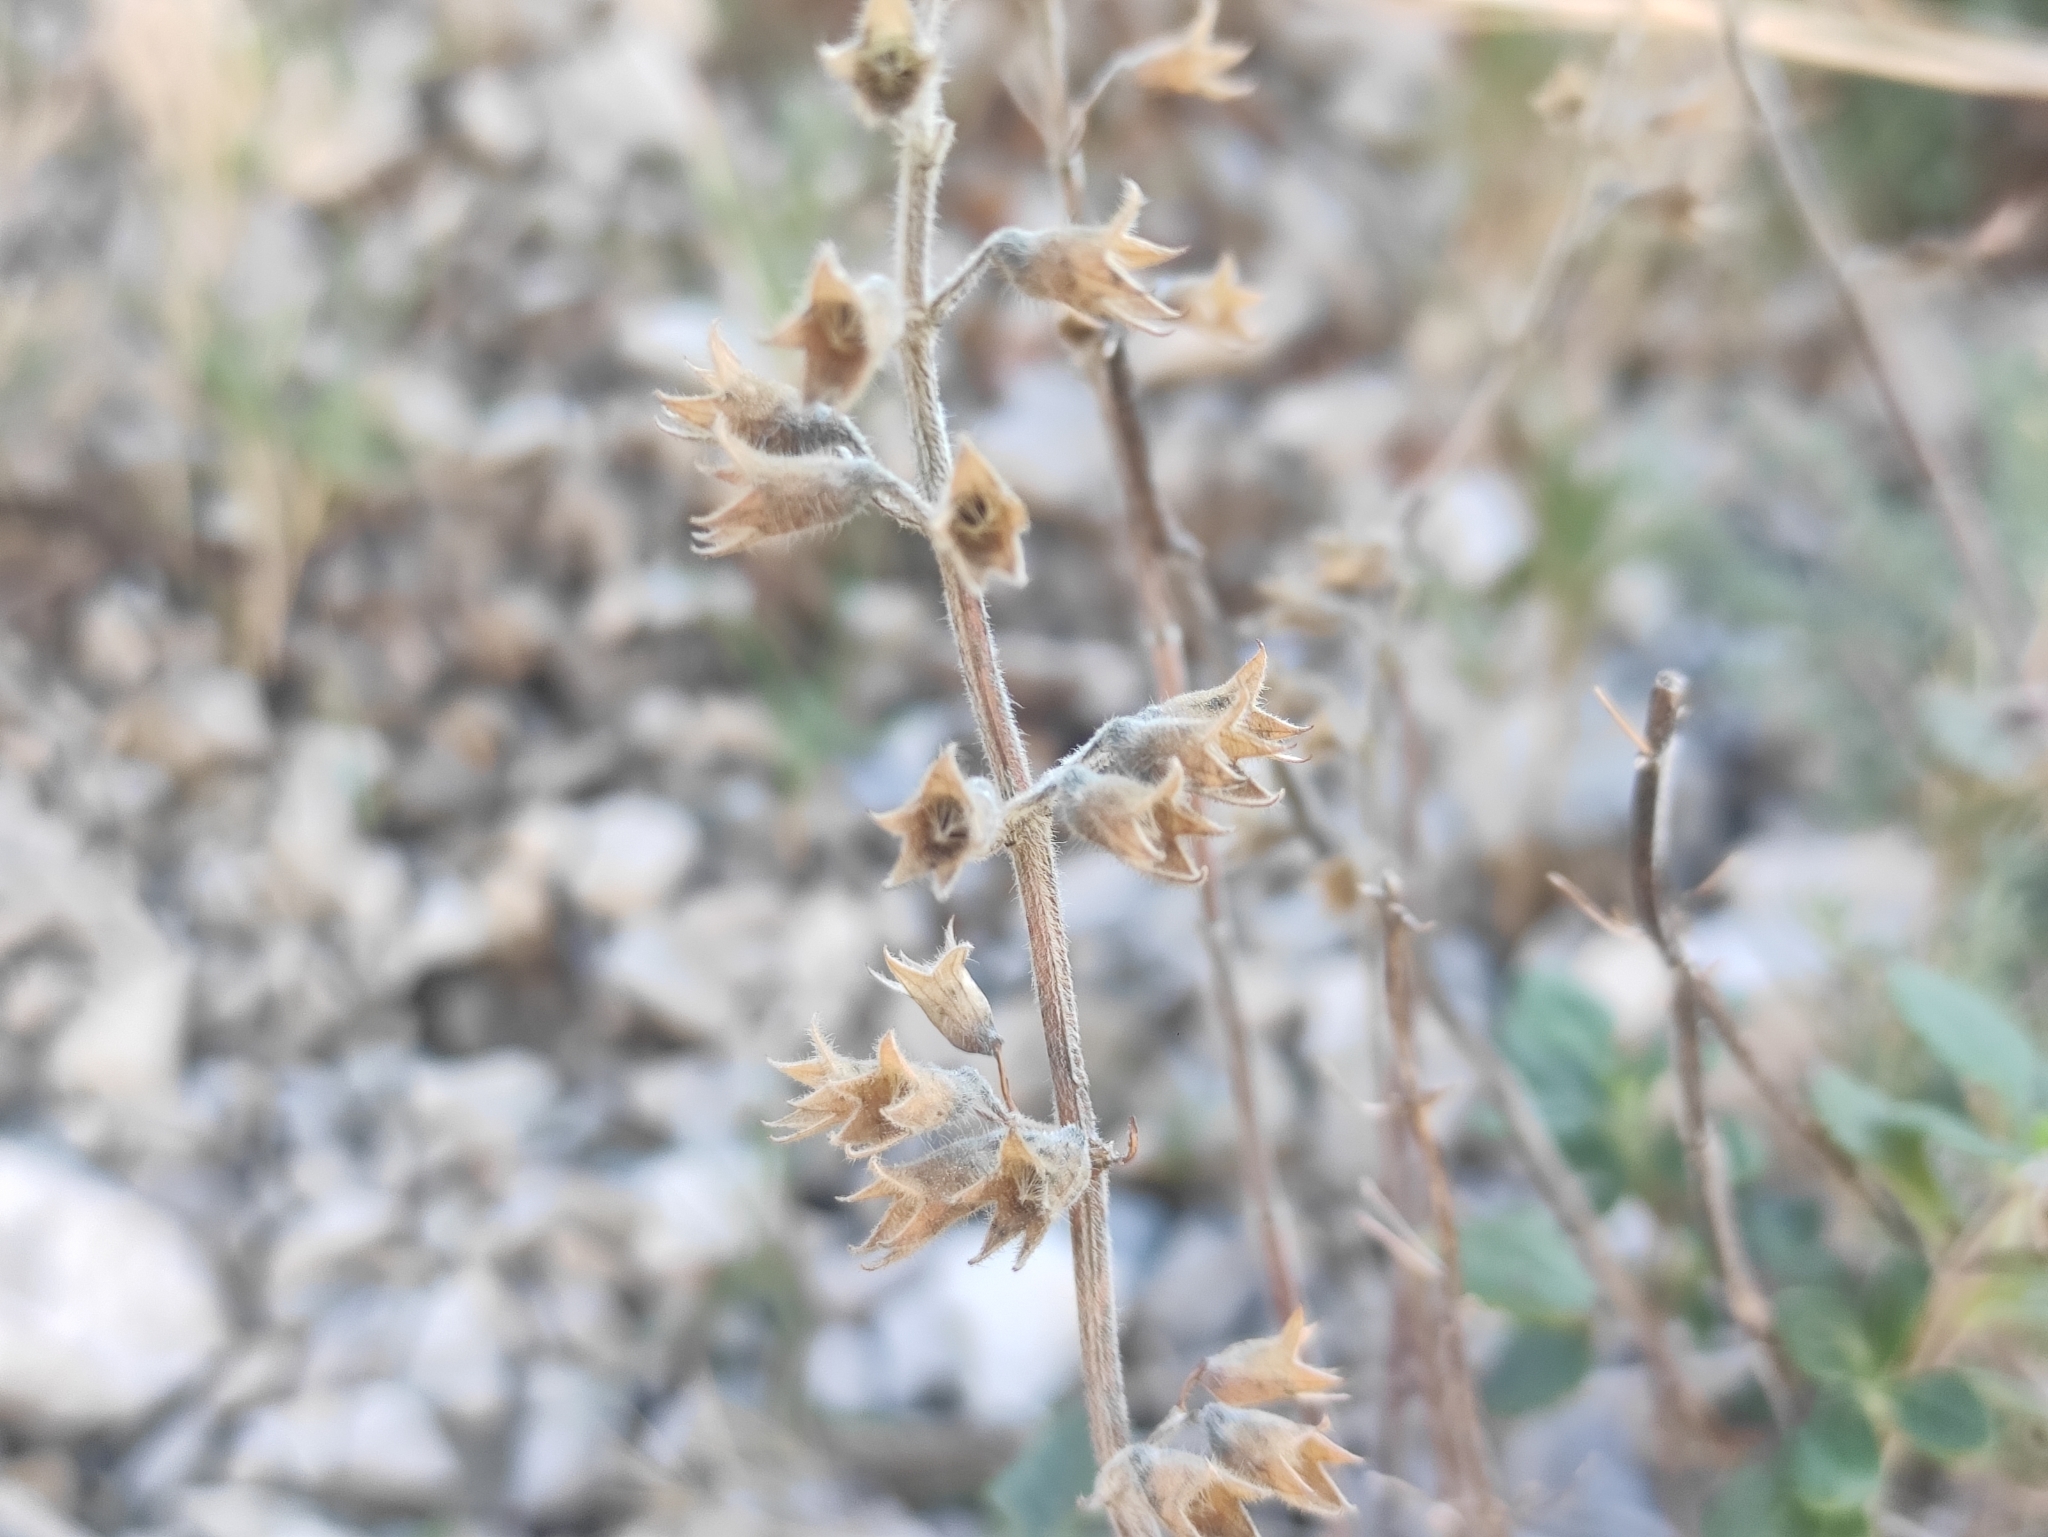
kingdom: Plantae
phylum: Tracheophyta
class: Magnoliopsida
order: Lamiales
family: Lamiaceae
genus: Teucrium
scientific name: Teucrium flavum
